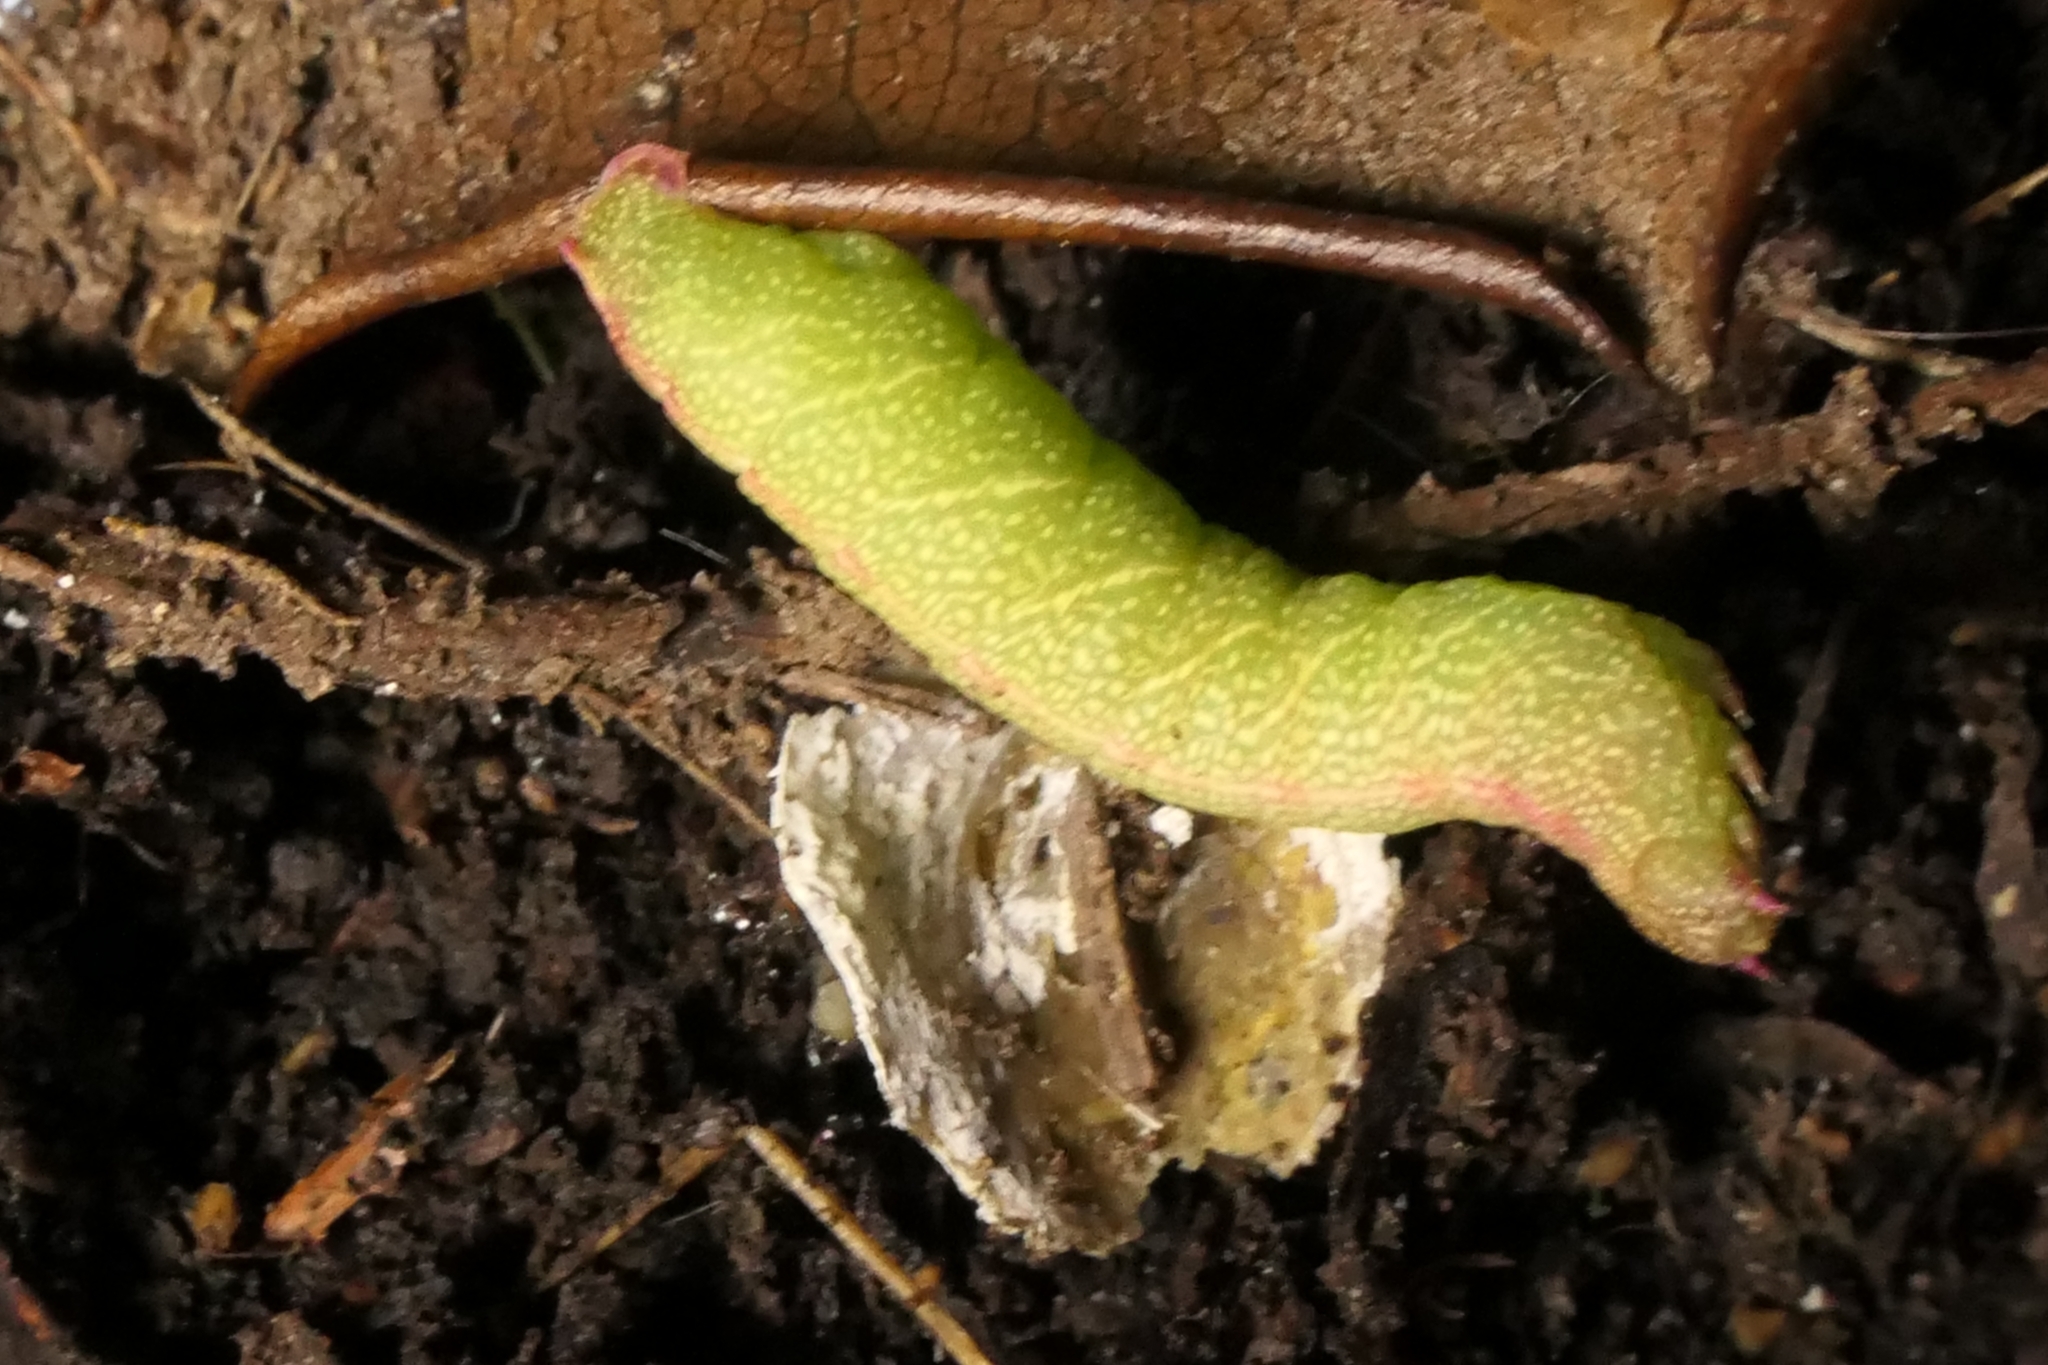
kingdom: Animalia
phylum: Arthropoda
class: Insecta
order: Lepidoptera
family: Geometridae
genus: Xyridacma
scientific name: Xyridacma ustaria
